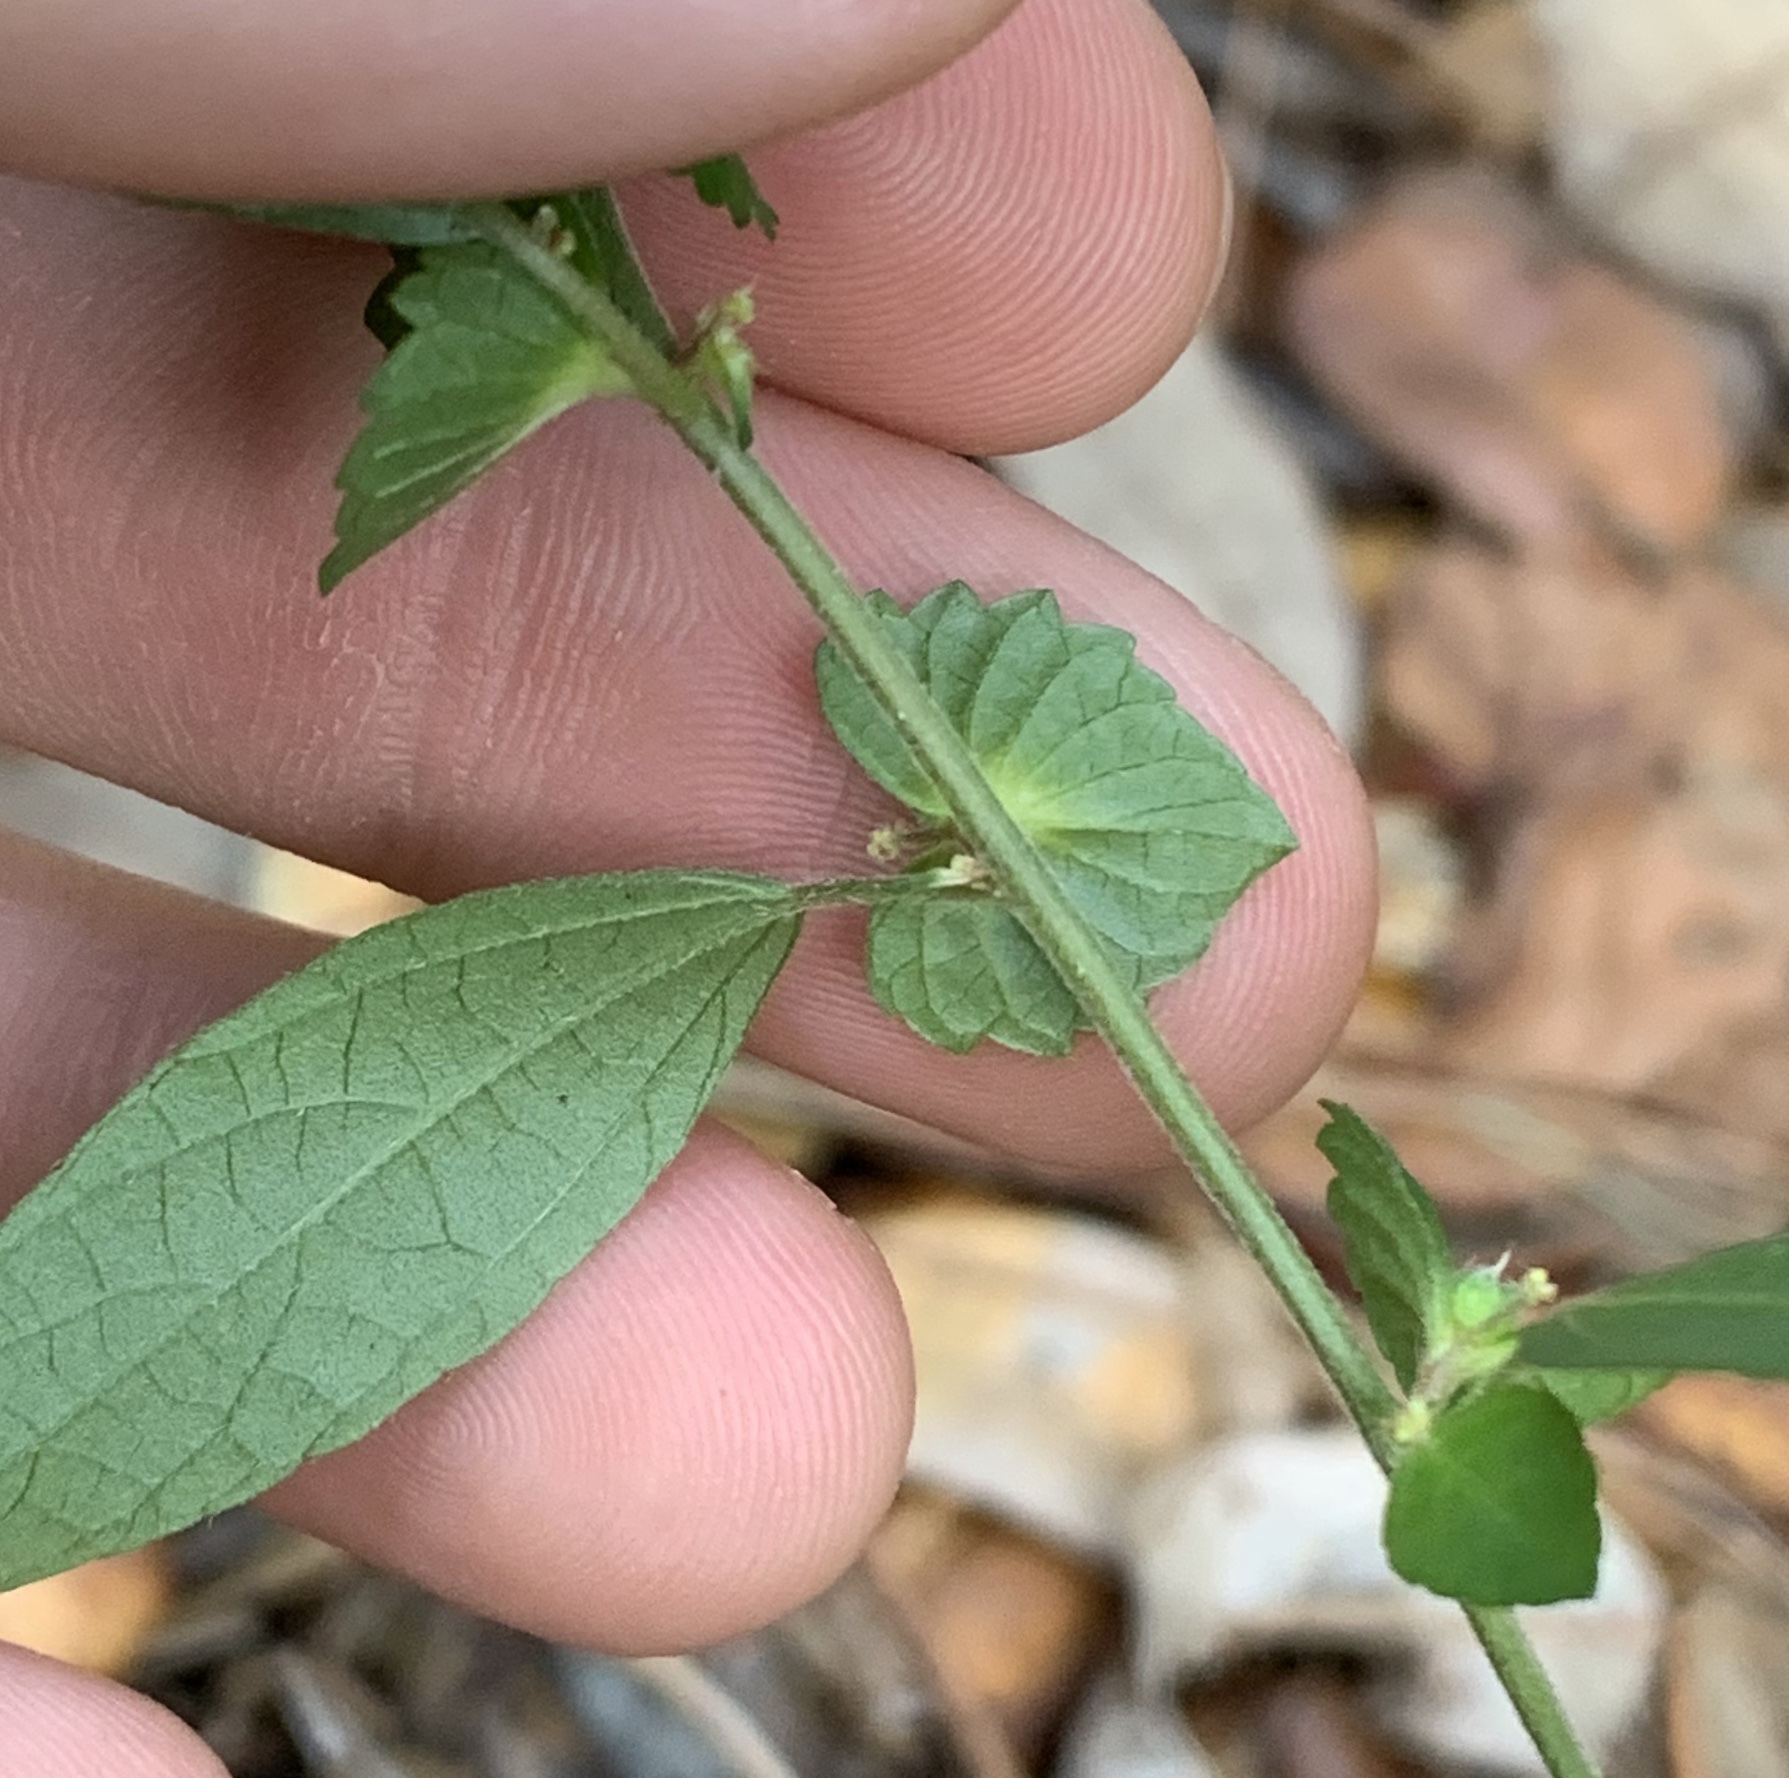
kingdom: Plantae
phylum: Tracheophyta
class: Magnoliopsida
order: Malpighiales
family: Euphorbiaceae
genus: Acalypha
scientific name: Acalypha gracilens
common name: Slender three-seeded mercury
